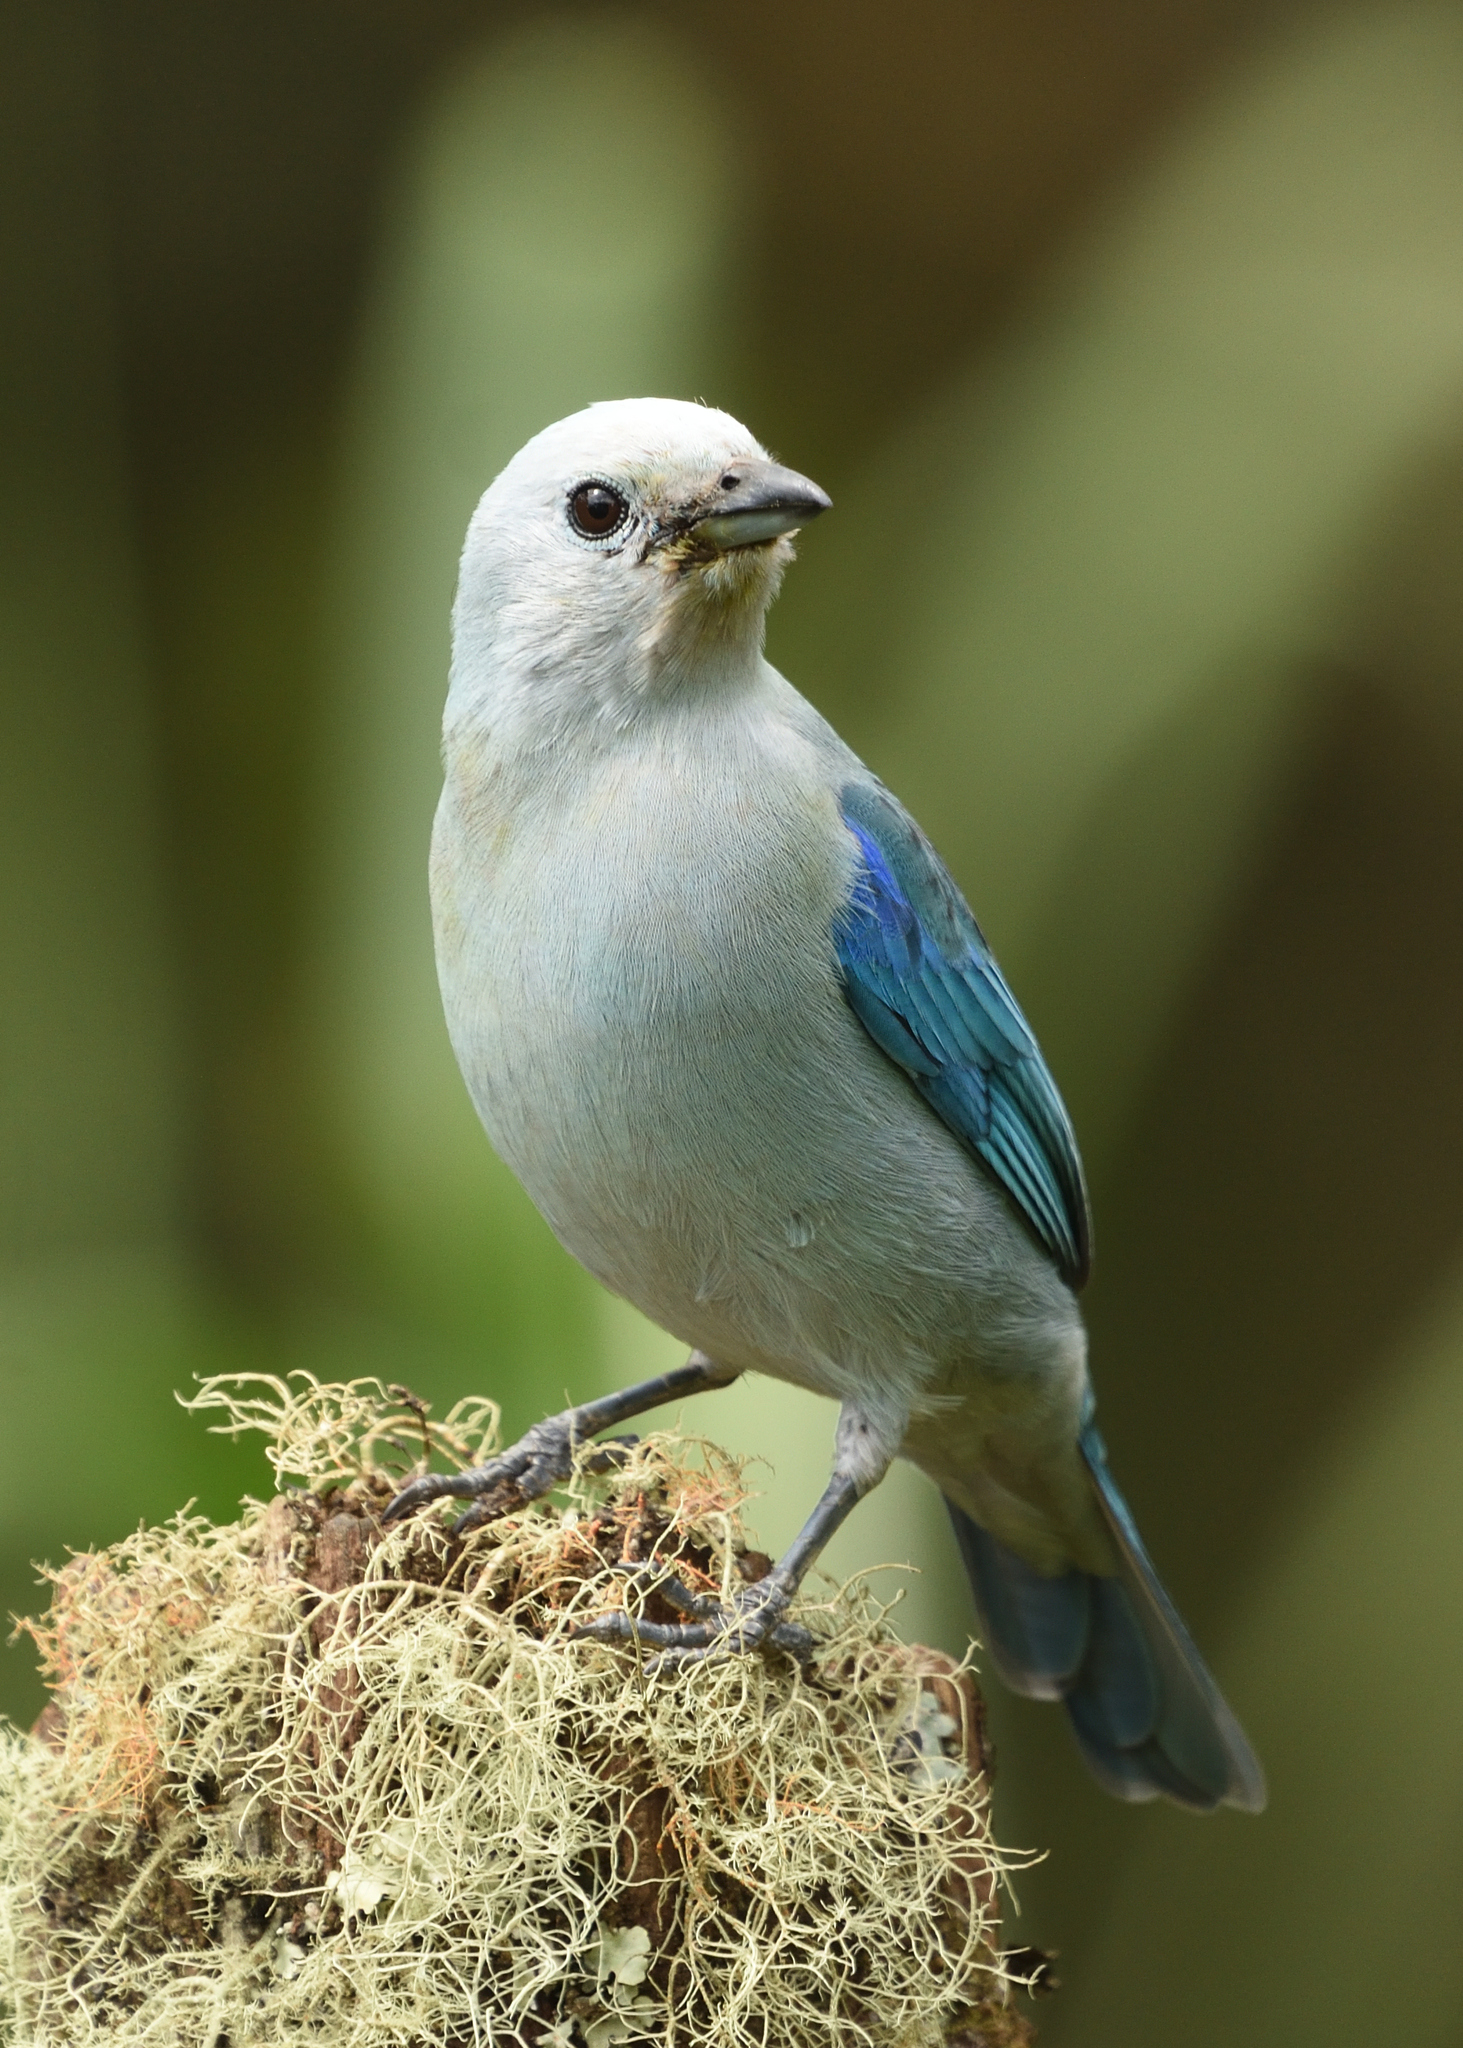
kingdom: Animalia
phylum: Chordata
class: Aves
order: Passeriformes
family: Thraupidae
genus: Thraupis
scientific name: Thraupis episcopus
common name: Blue-grey tanager
